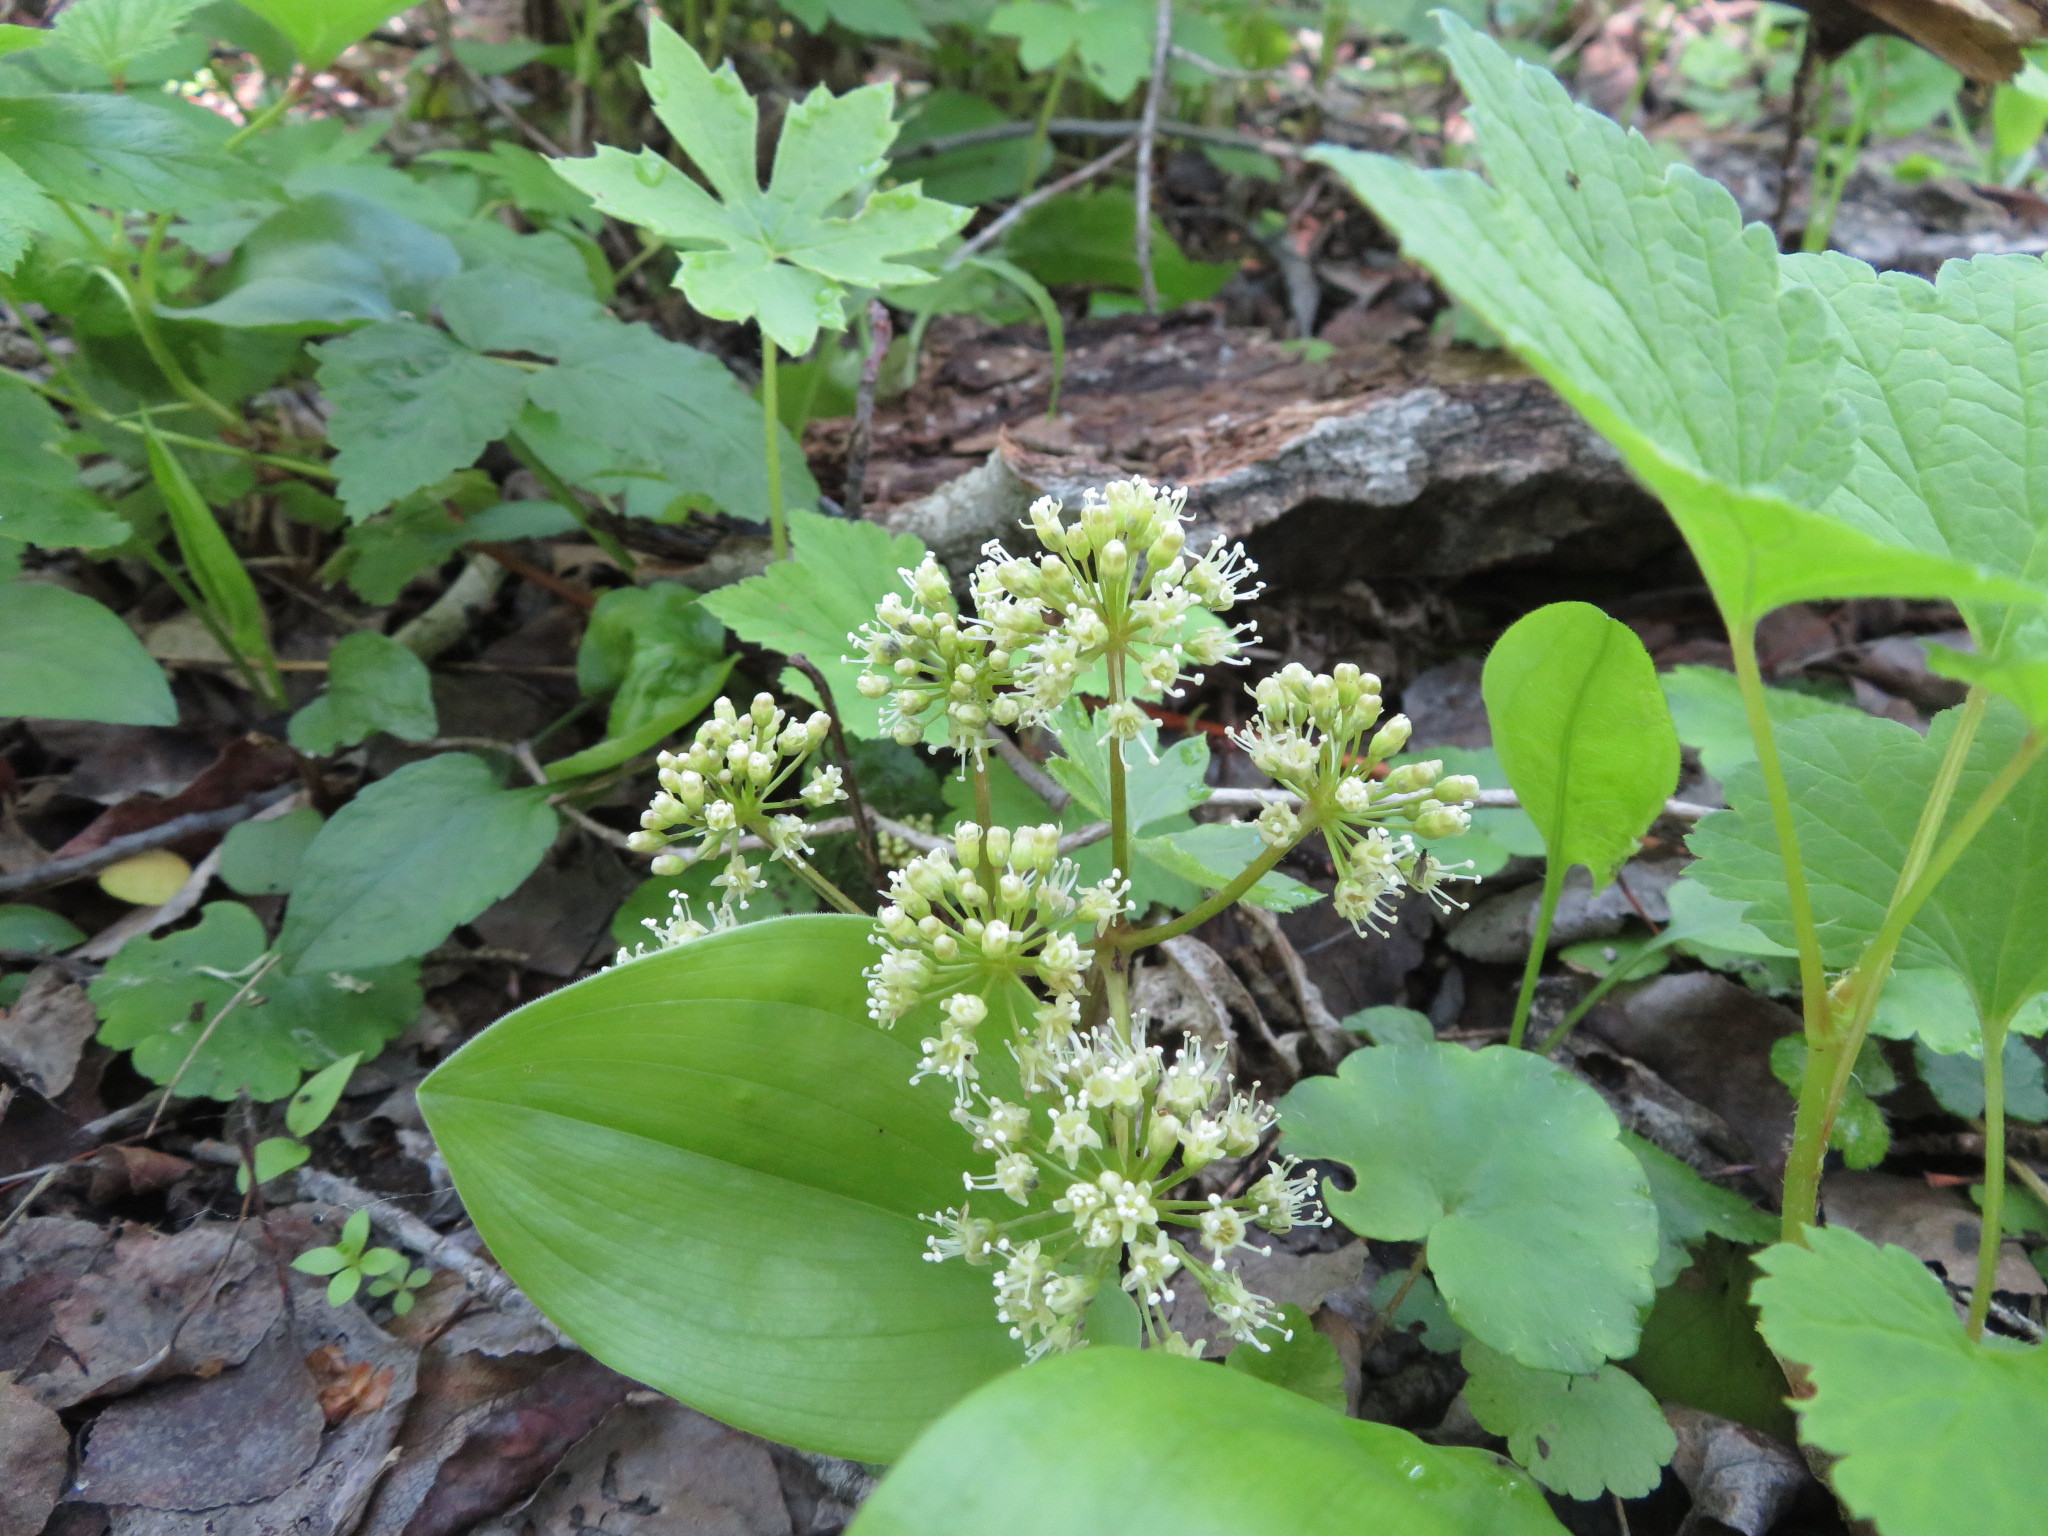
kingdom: Plantae
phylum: Tracheophyta
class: Magnoliopsida
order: Apiales
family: Araliaceae
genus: Aralia
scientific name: Aralia nudicaulis
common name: Wild sarsaparilla
